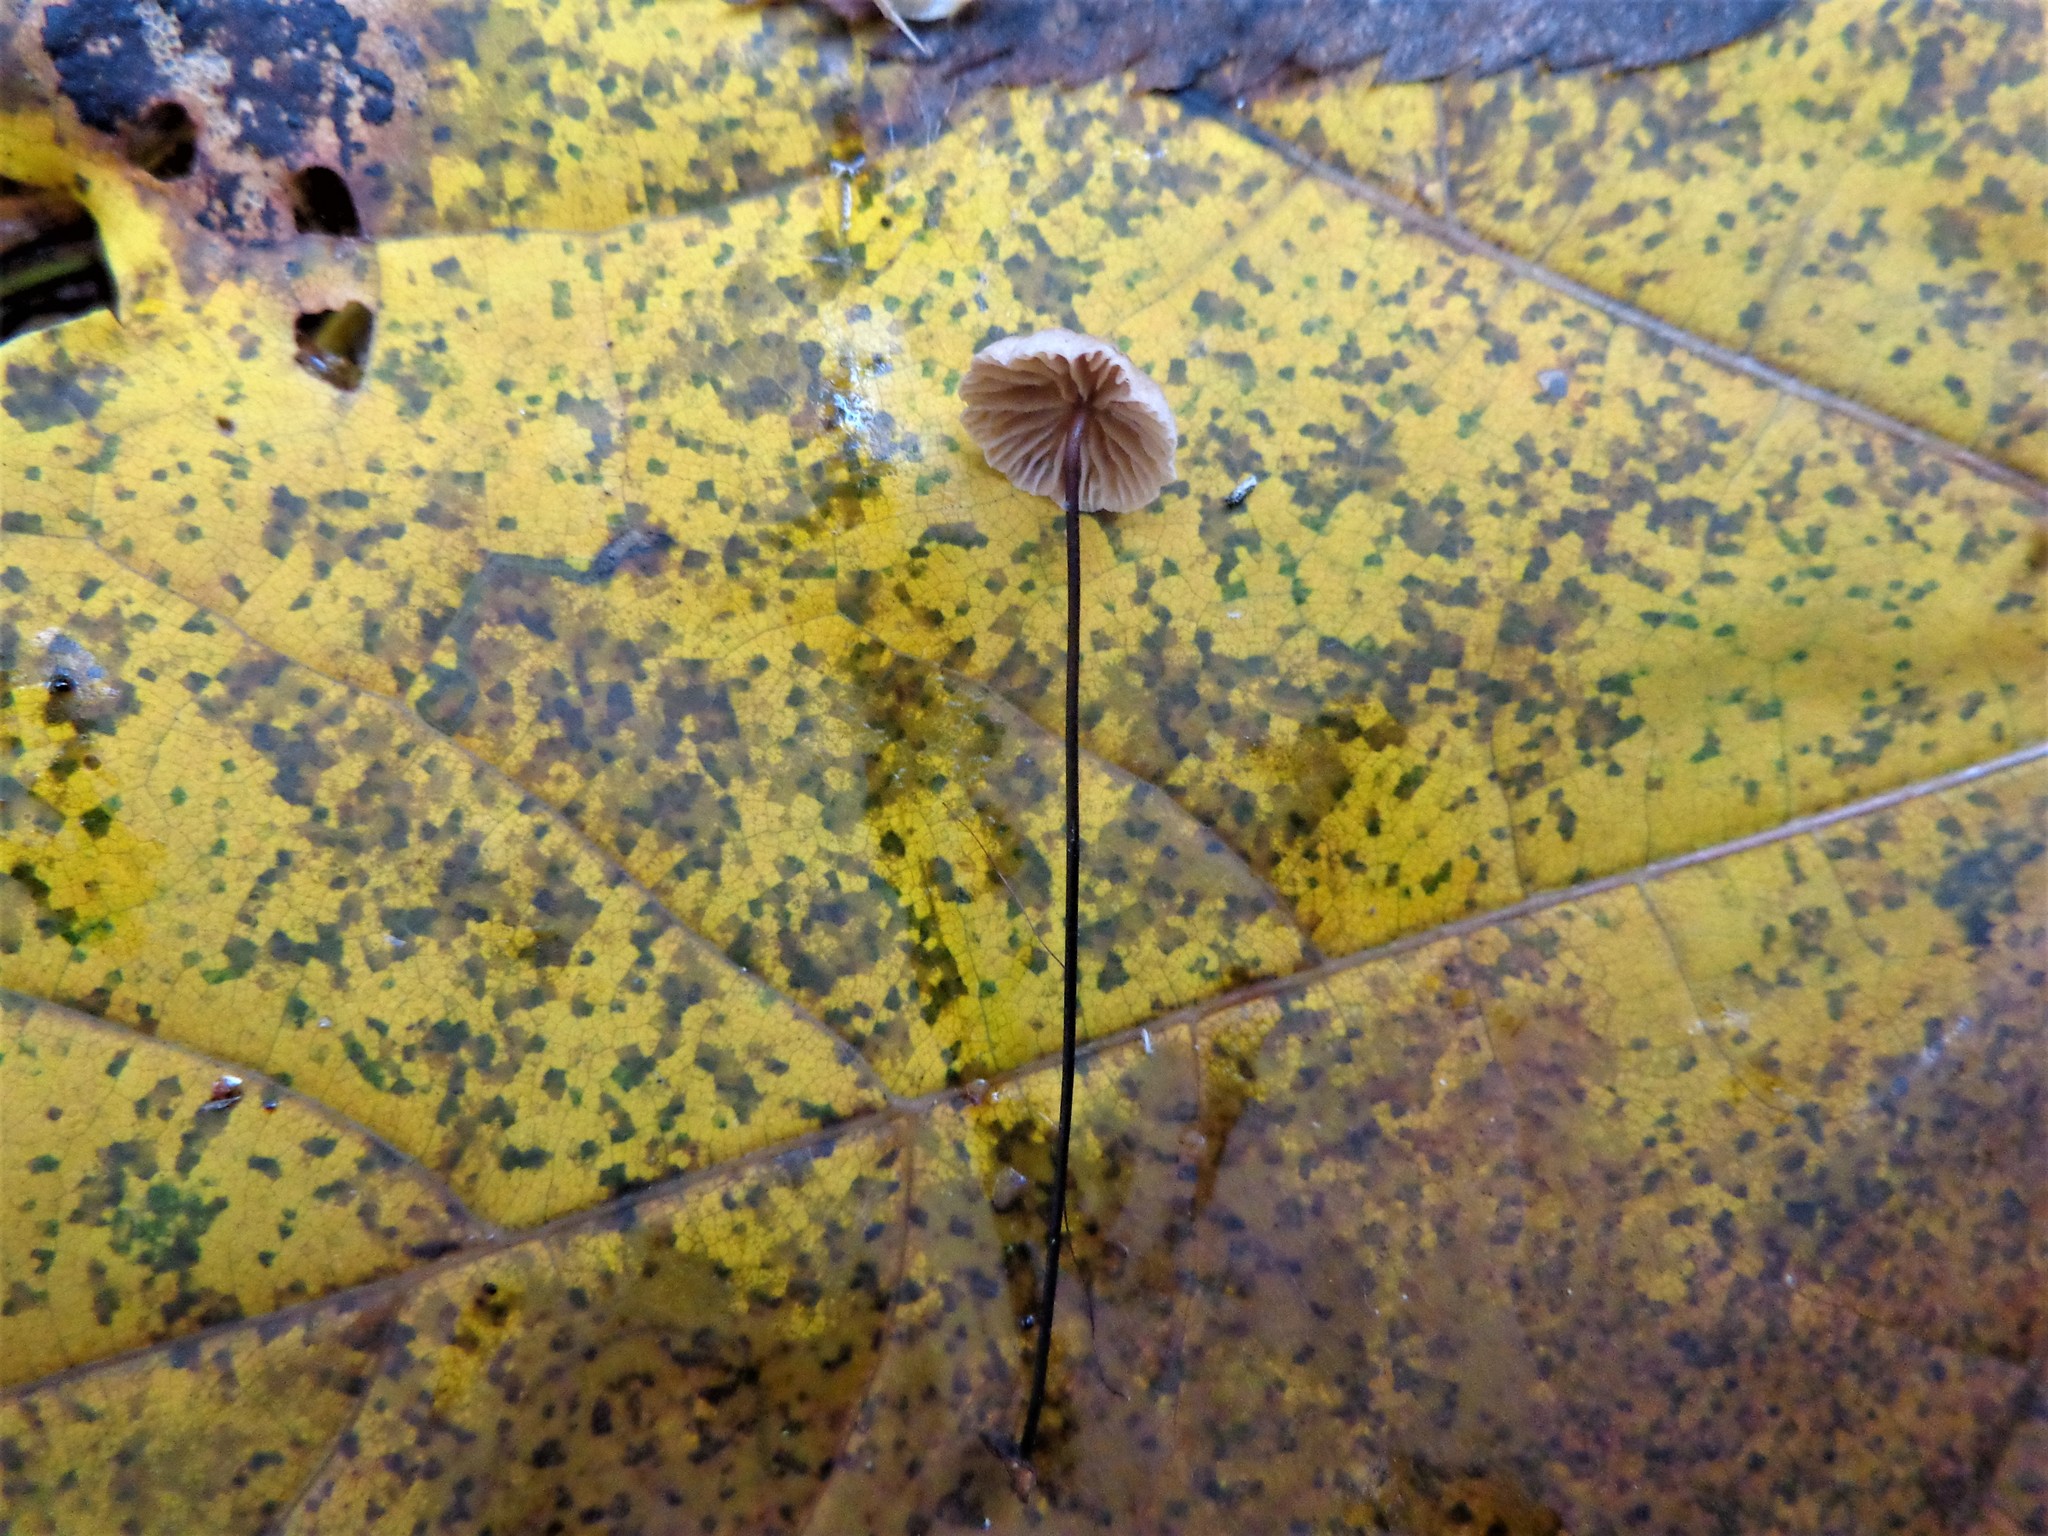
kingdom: Fungi
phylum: Basidiomycota
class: Agaricomycetes
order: Agaricales
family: Omphalotaceae
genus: Gymnopus
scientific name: Gymnopus androsaceus
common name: Horse-hair fungus
